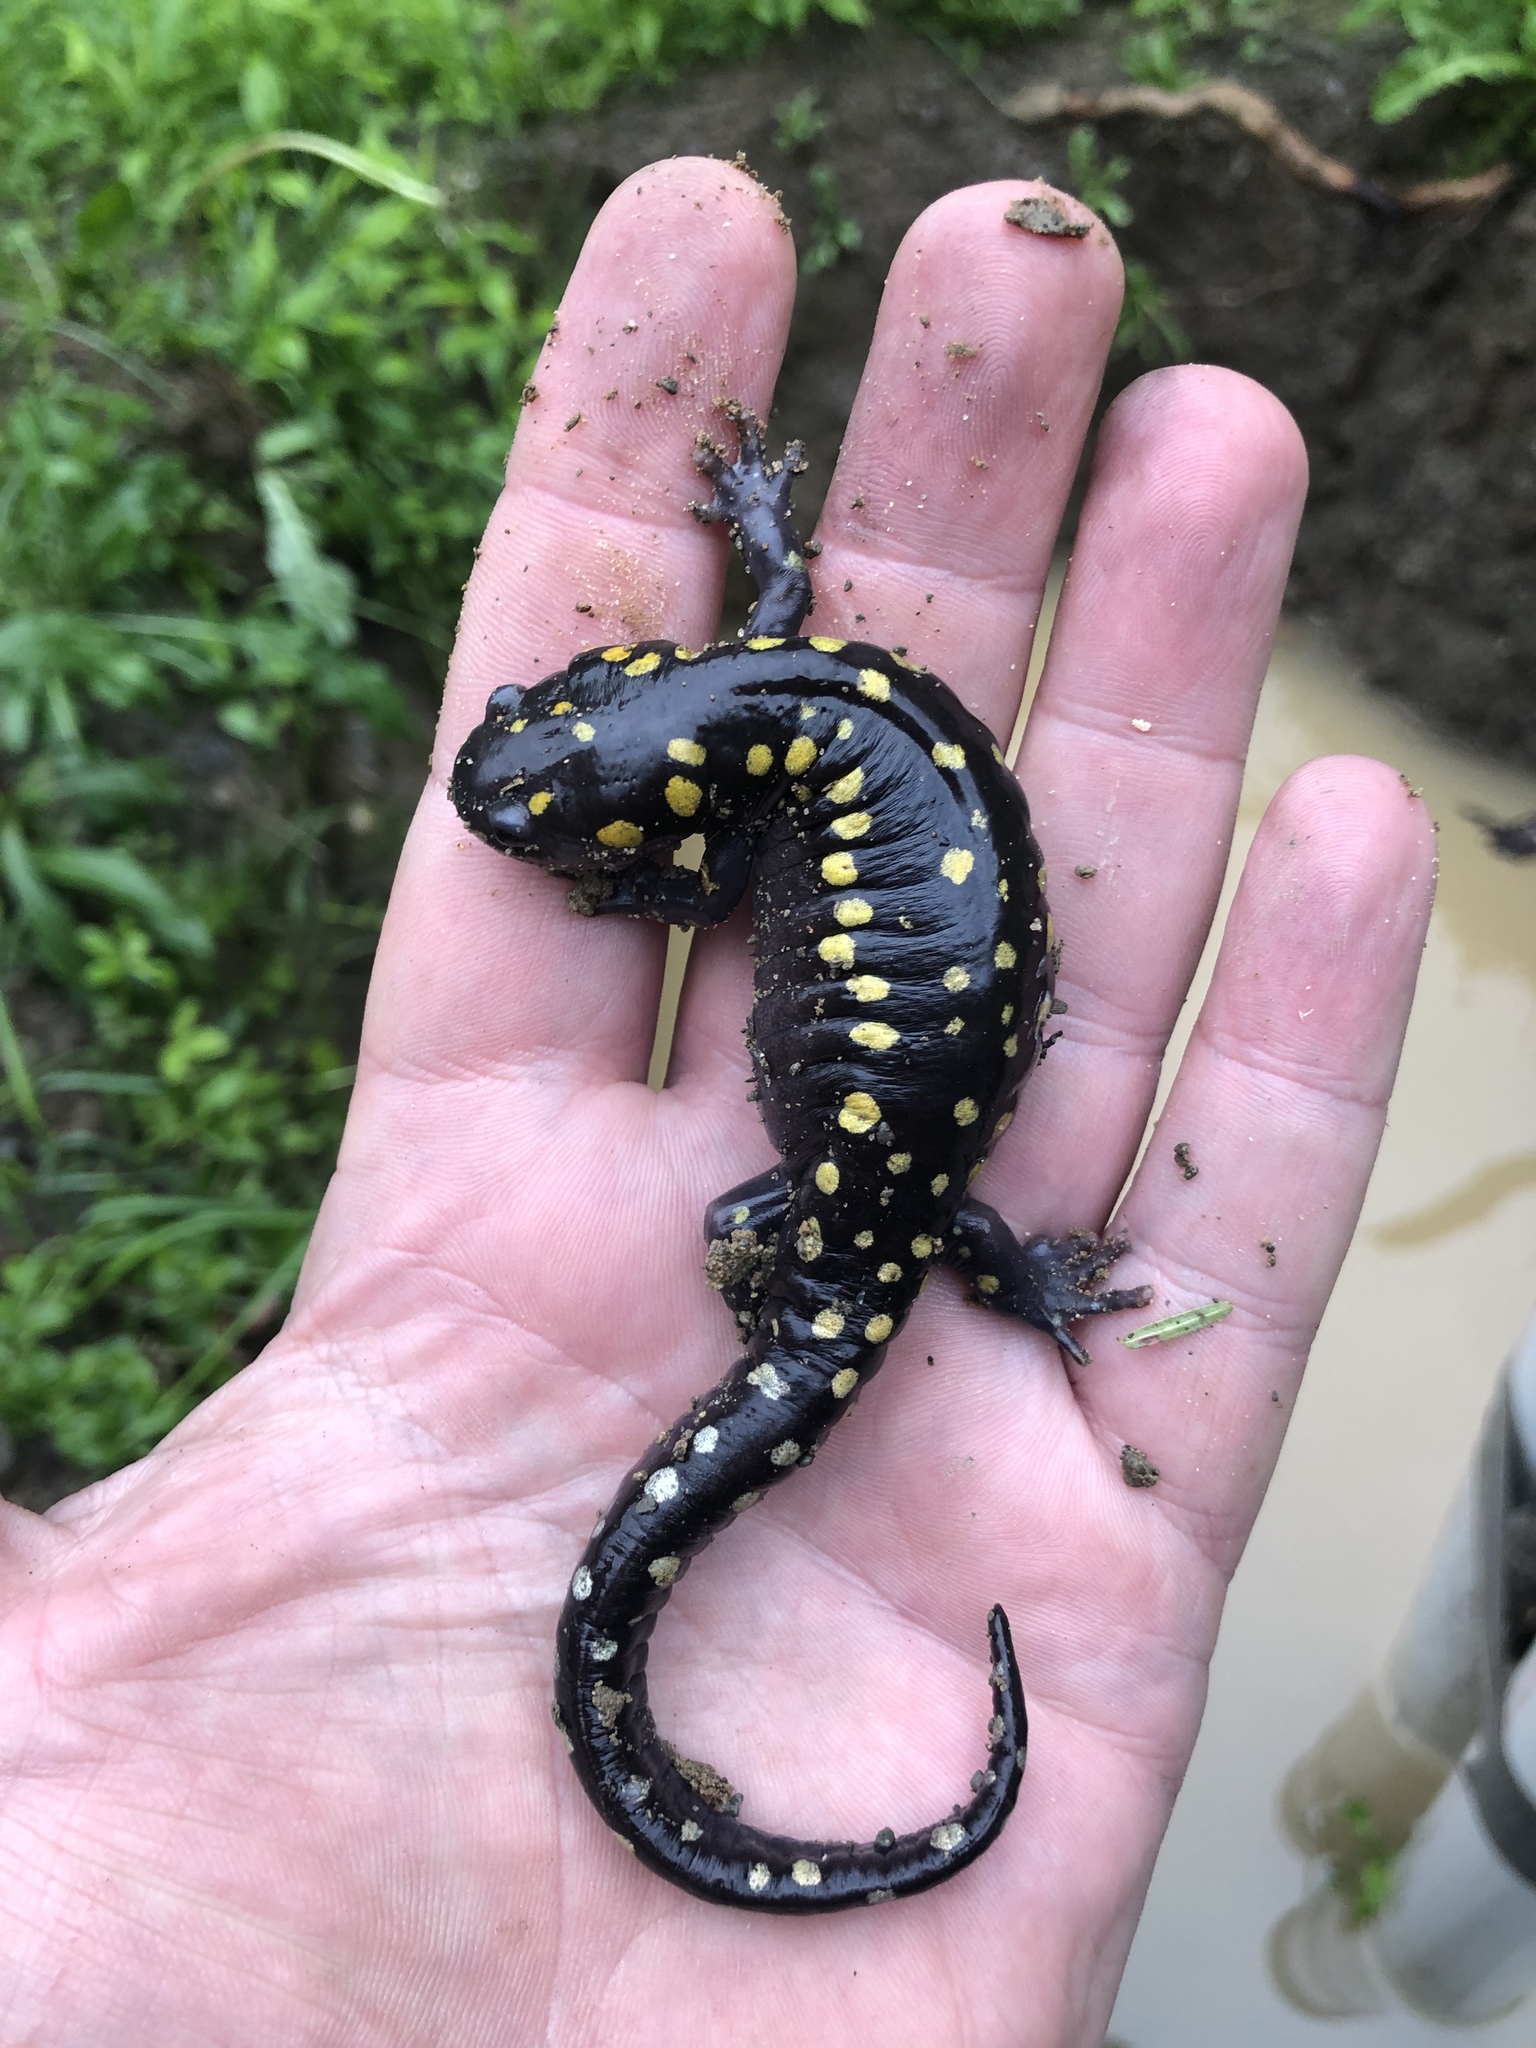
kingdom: Animalia
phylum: Chordata
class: Amphibia
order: Caudata
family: Ambystomatidae
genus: Ambystoma
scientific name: Ambystoma maculatum
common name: Spotted salamander
